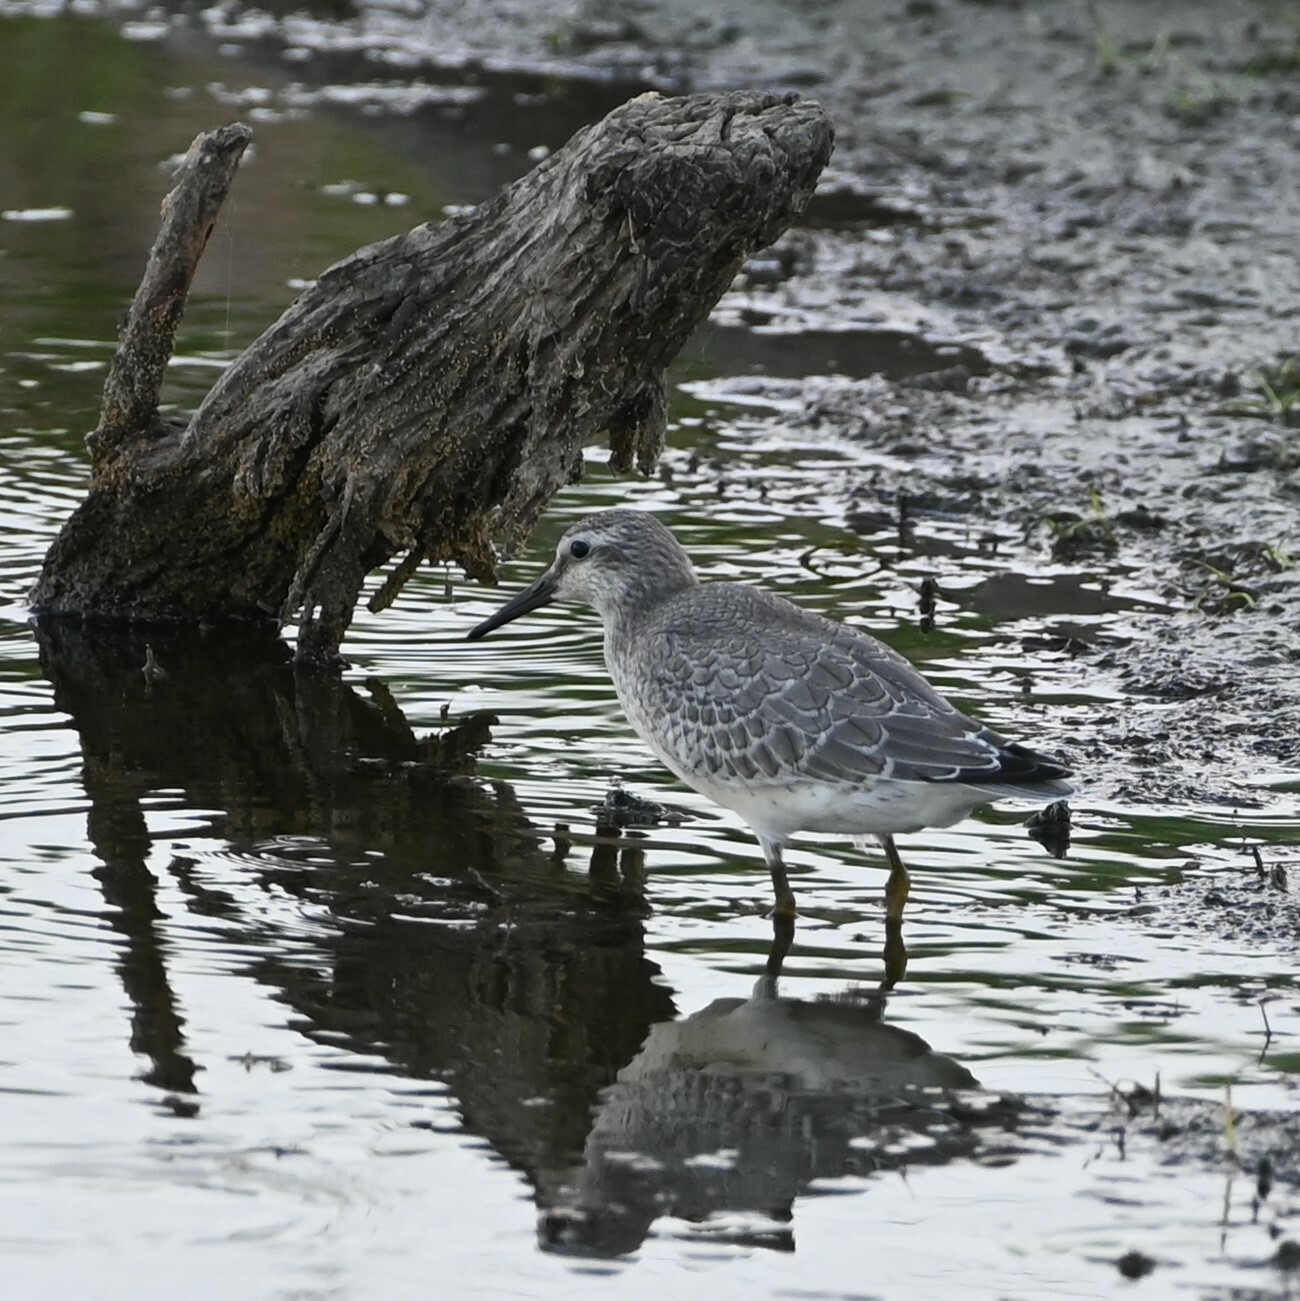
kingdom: Animalia
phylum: Chordata
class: Aves
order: Charadriiformes
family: Scolopacidae
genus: Calidris
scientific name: Calidris canutus
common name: Red knot
